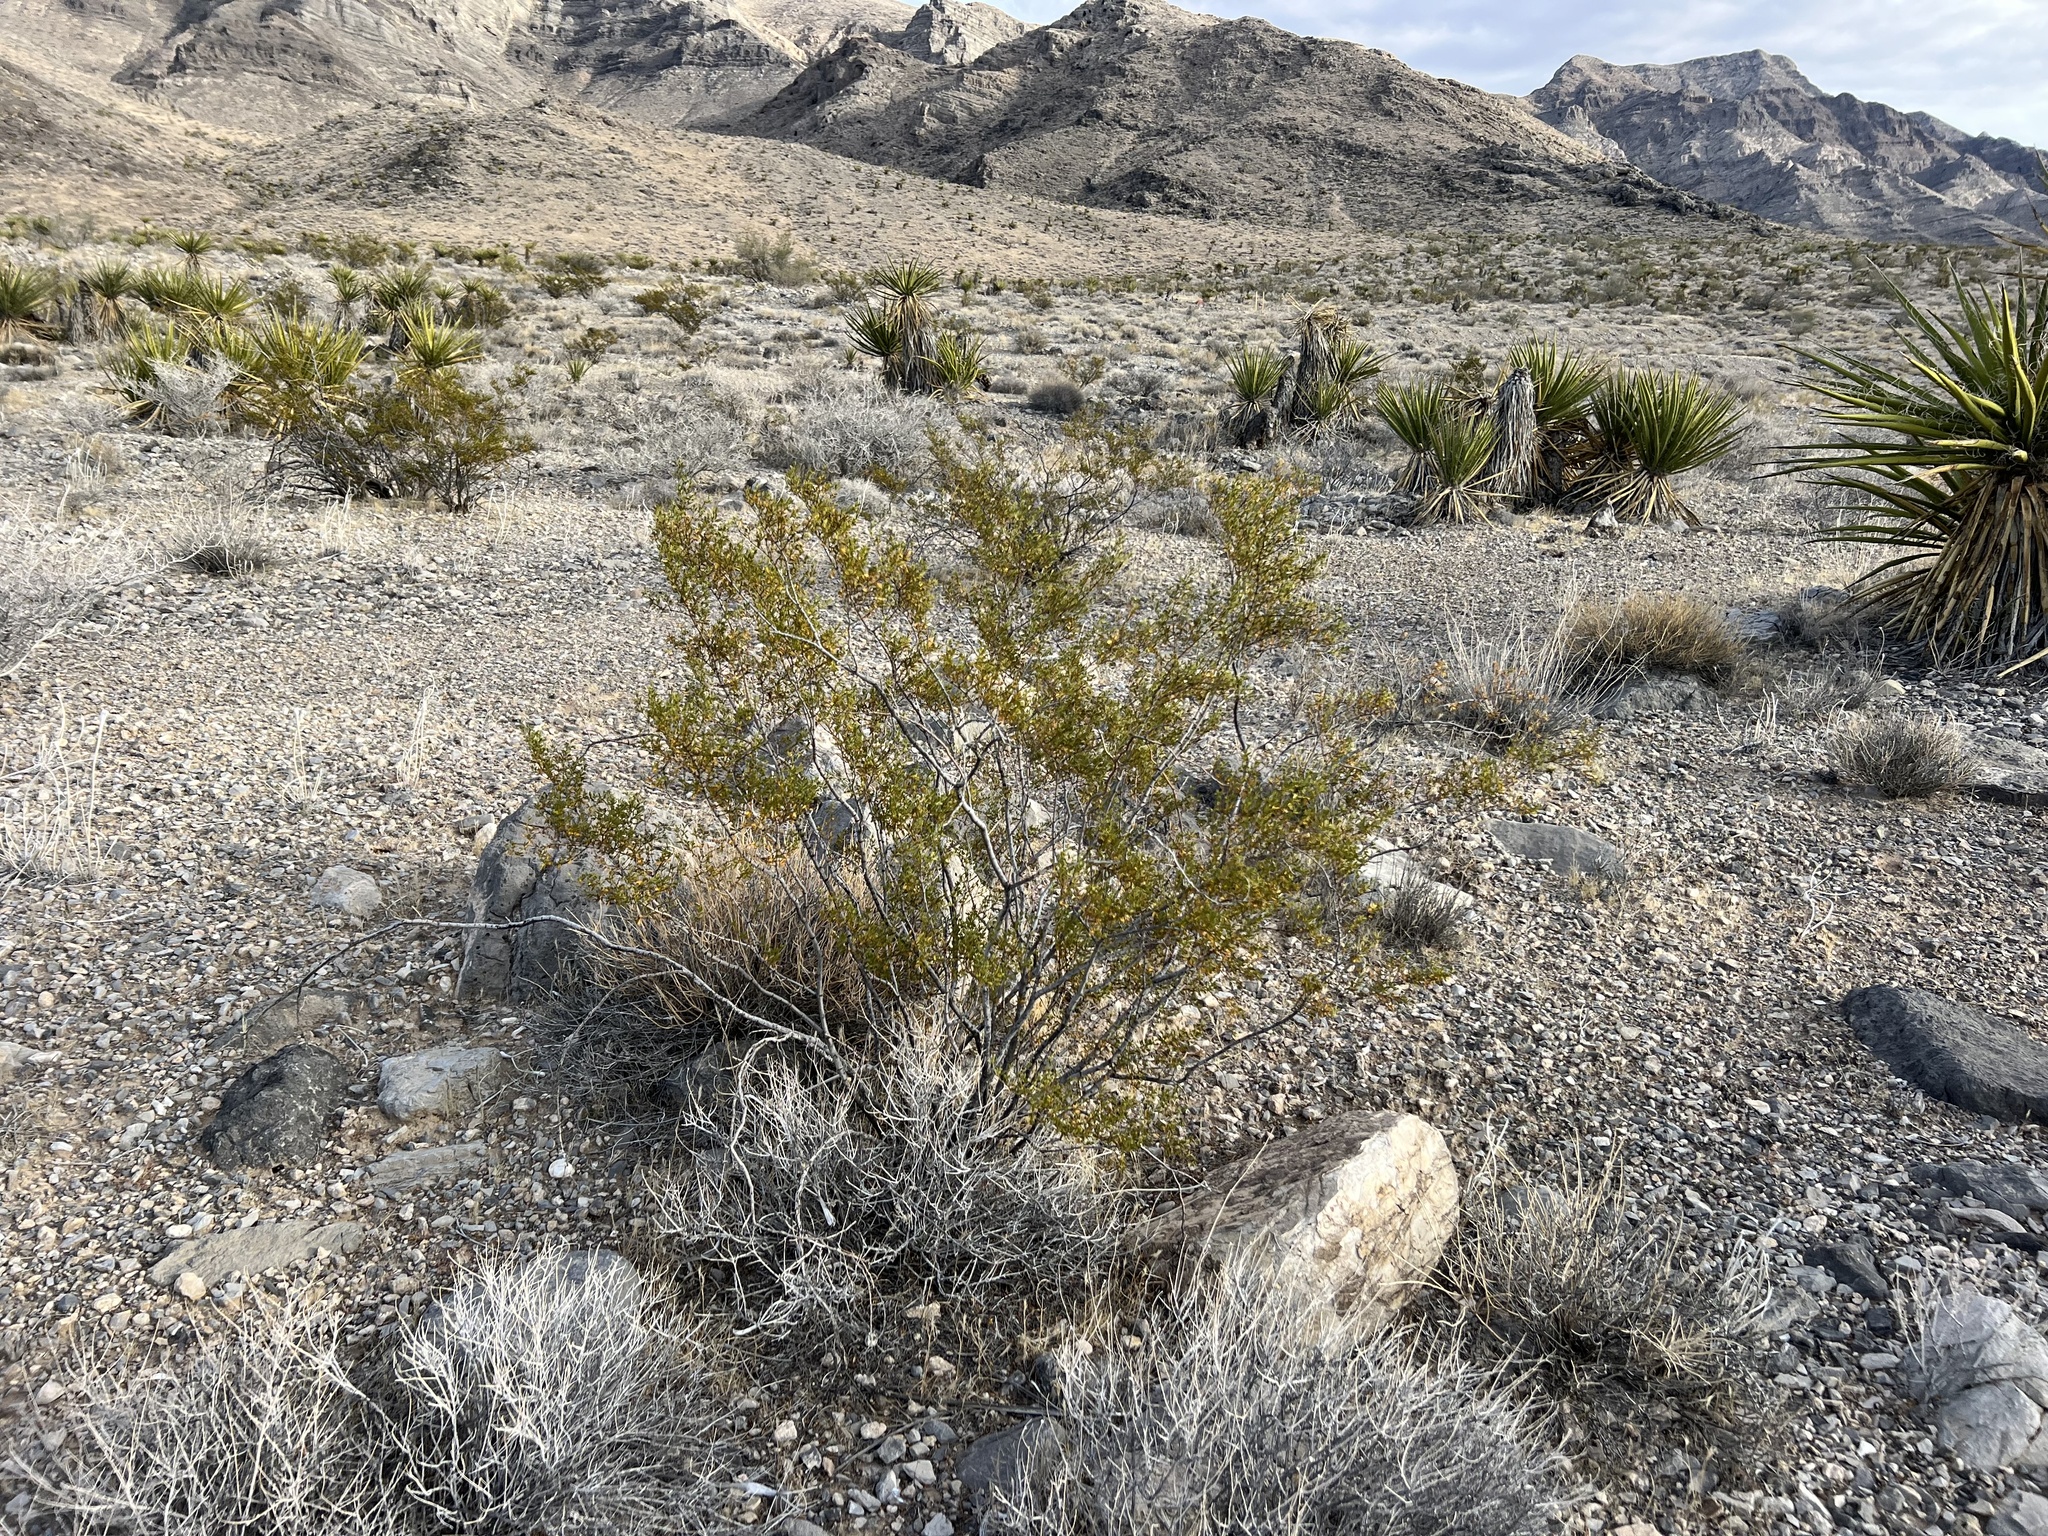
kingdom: Plantae
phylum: Tracheophyta
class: Magnoliopsida
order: Zygophyllales
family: Zygophyllaceae
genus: Larrea
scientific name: Larrea tridentata
